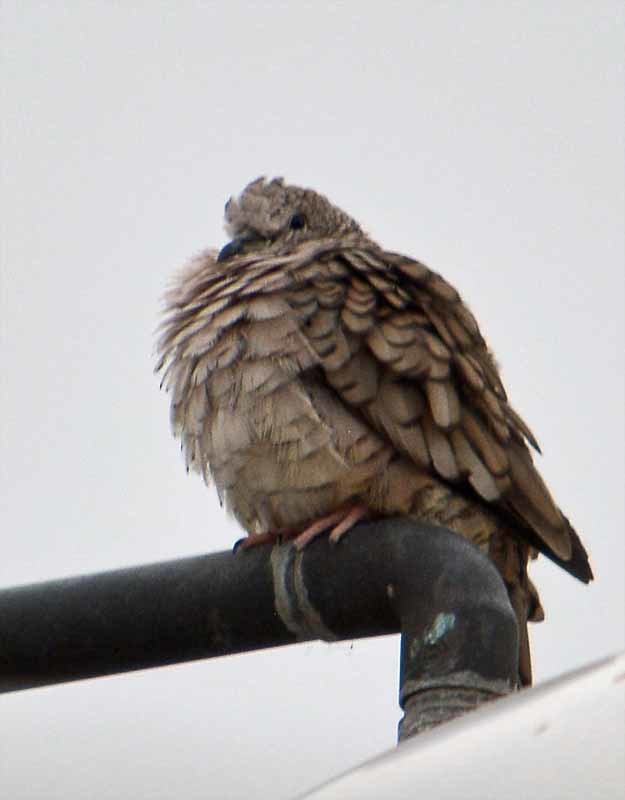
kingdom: Animalia
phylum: Chordata
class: Aves
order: Columbiformes
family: Columbidae
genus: Columbina
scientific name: Columbina inca
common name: Inca dove
